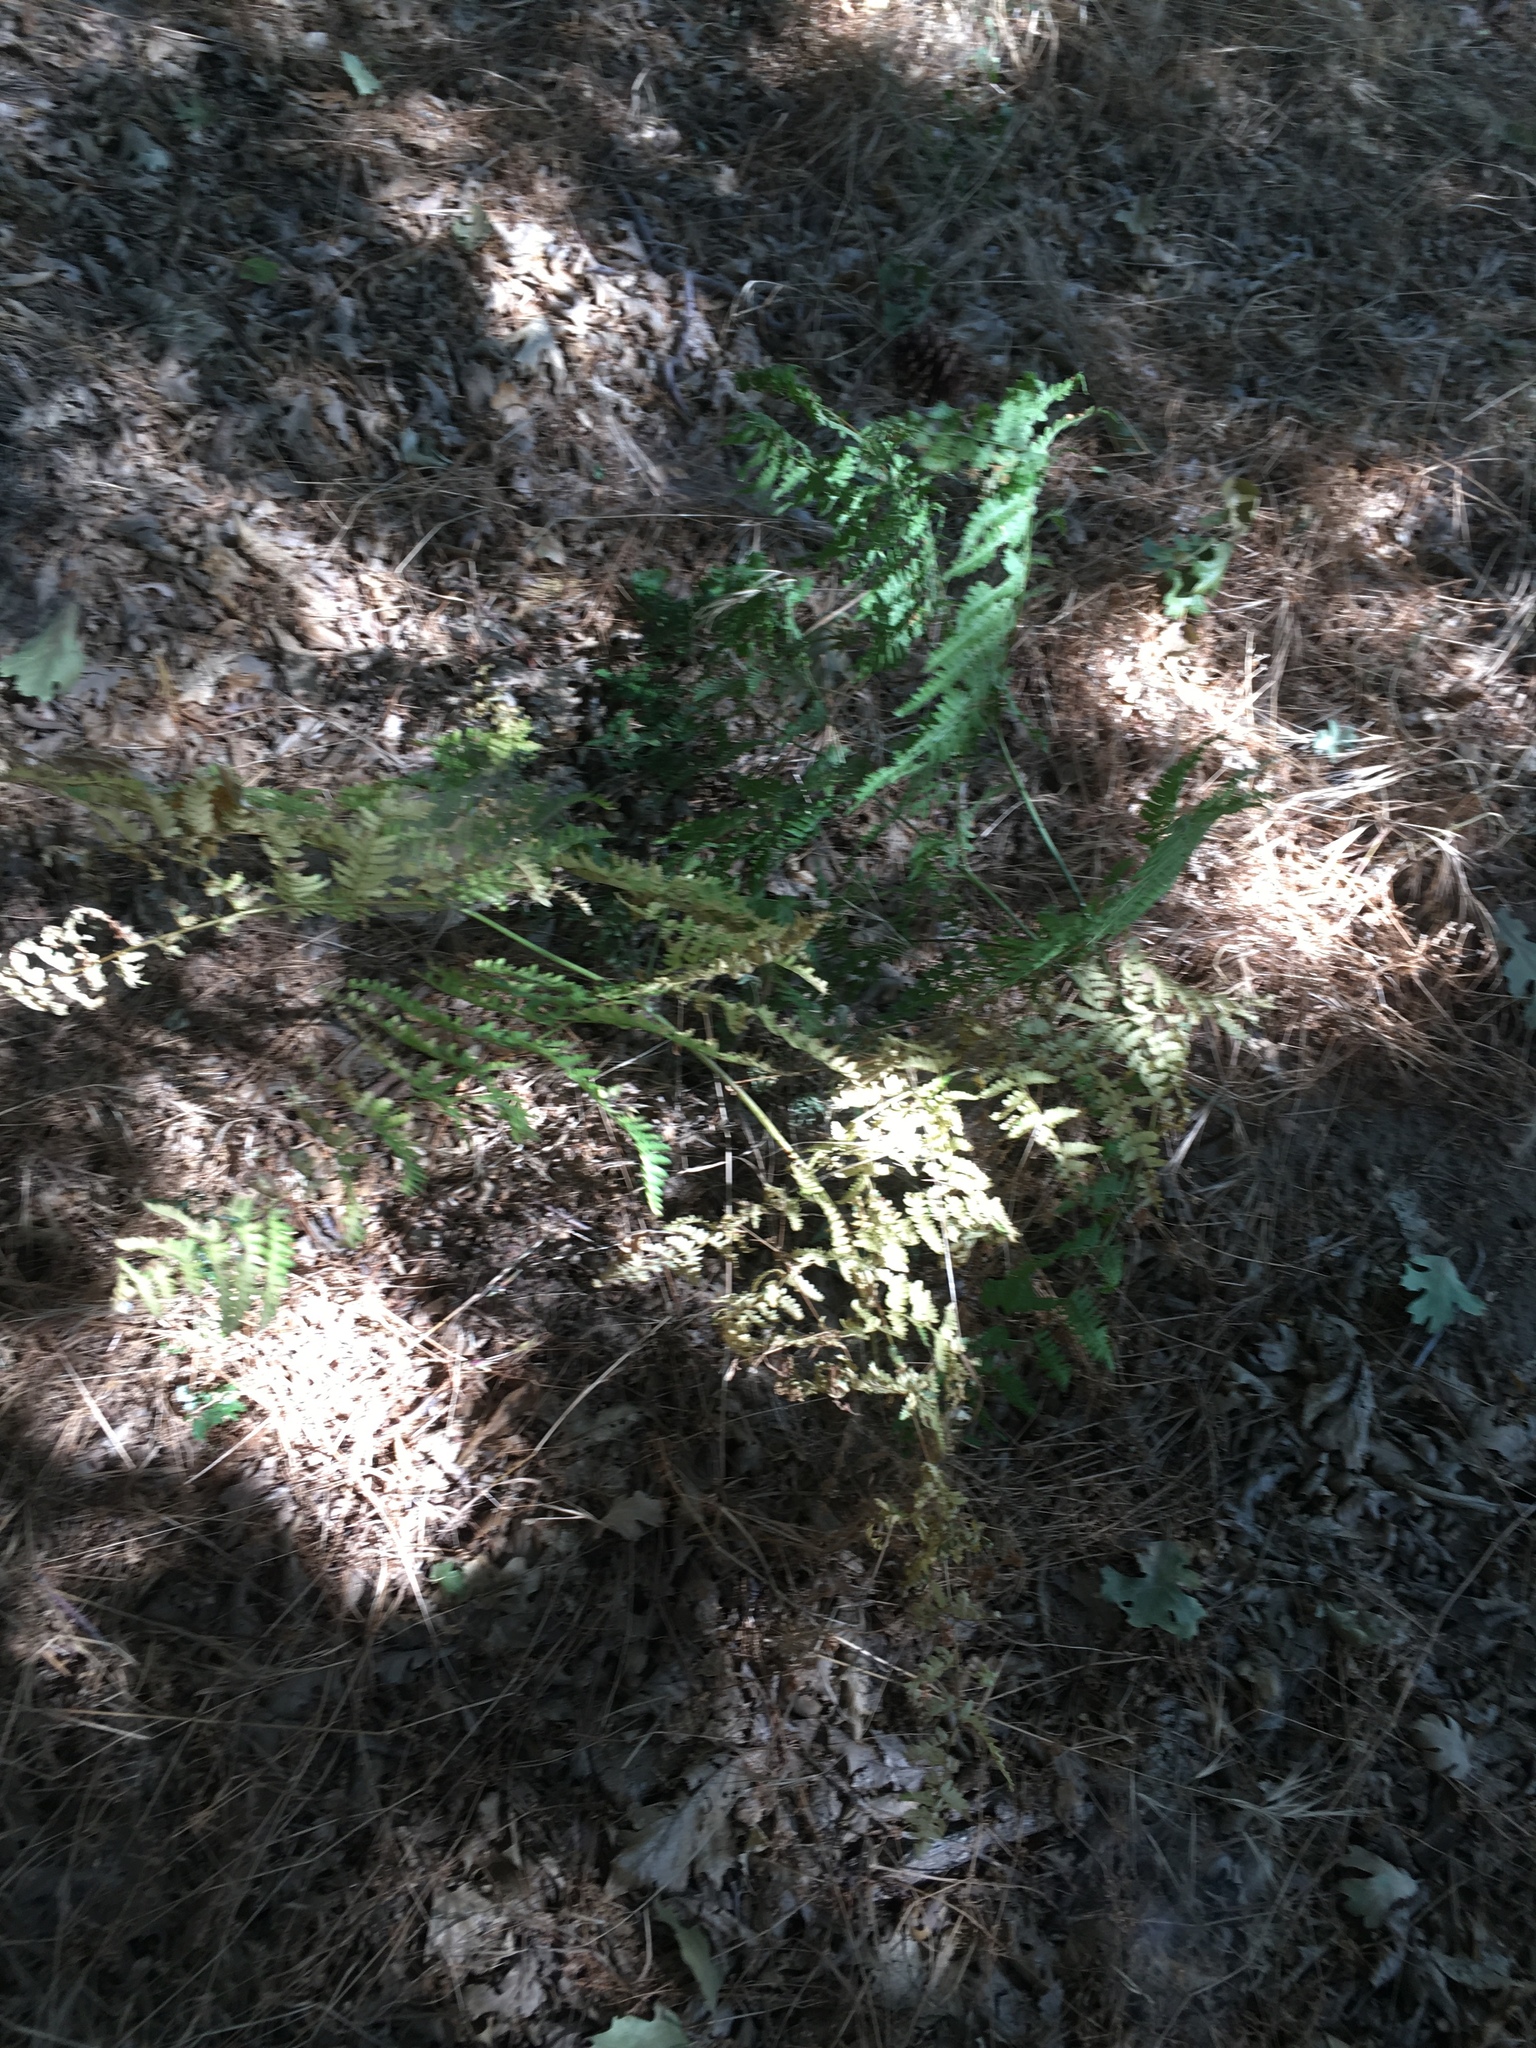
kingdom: Plantae
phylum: Tracheophyta
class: Polypodiopsida
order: Polypodiales
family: Dennstaedtiaceae
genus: Pteridium
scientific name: Pteridium aquilinum
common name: Bracken
